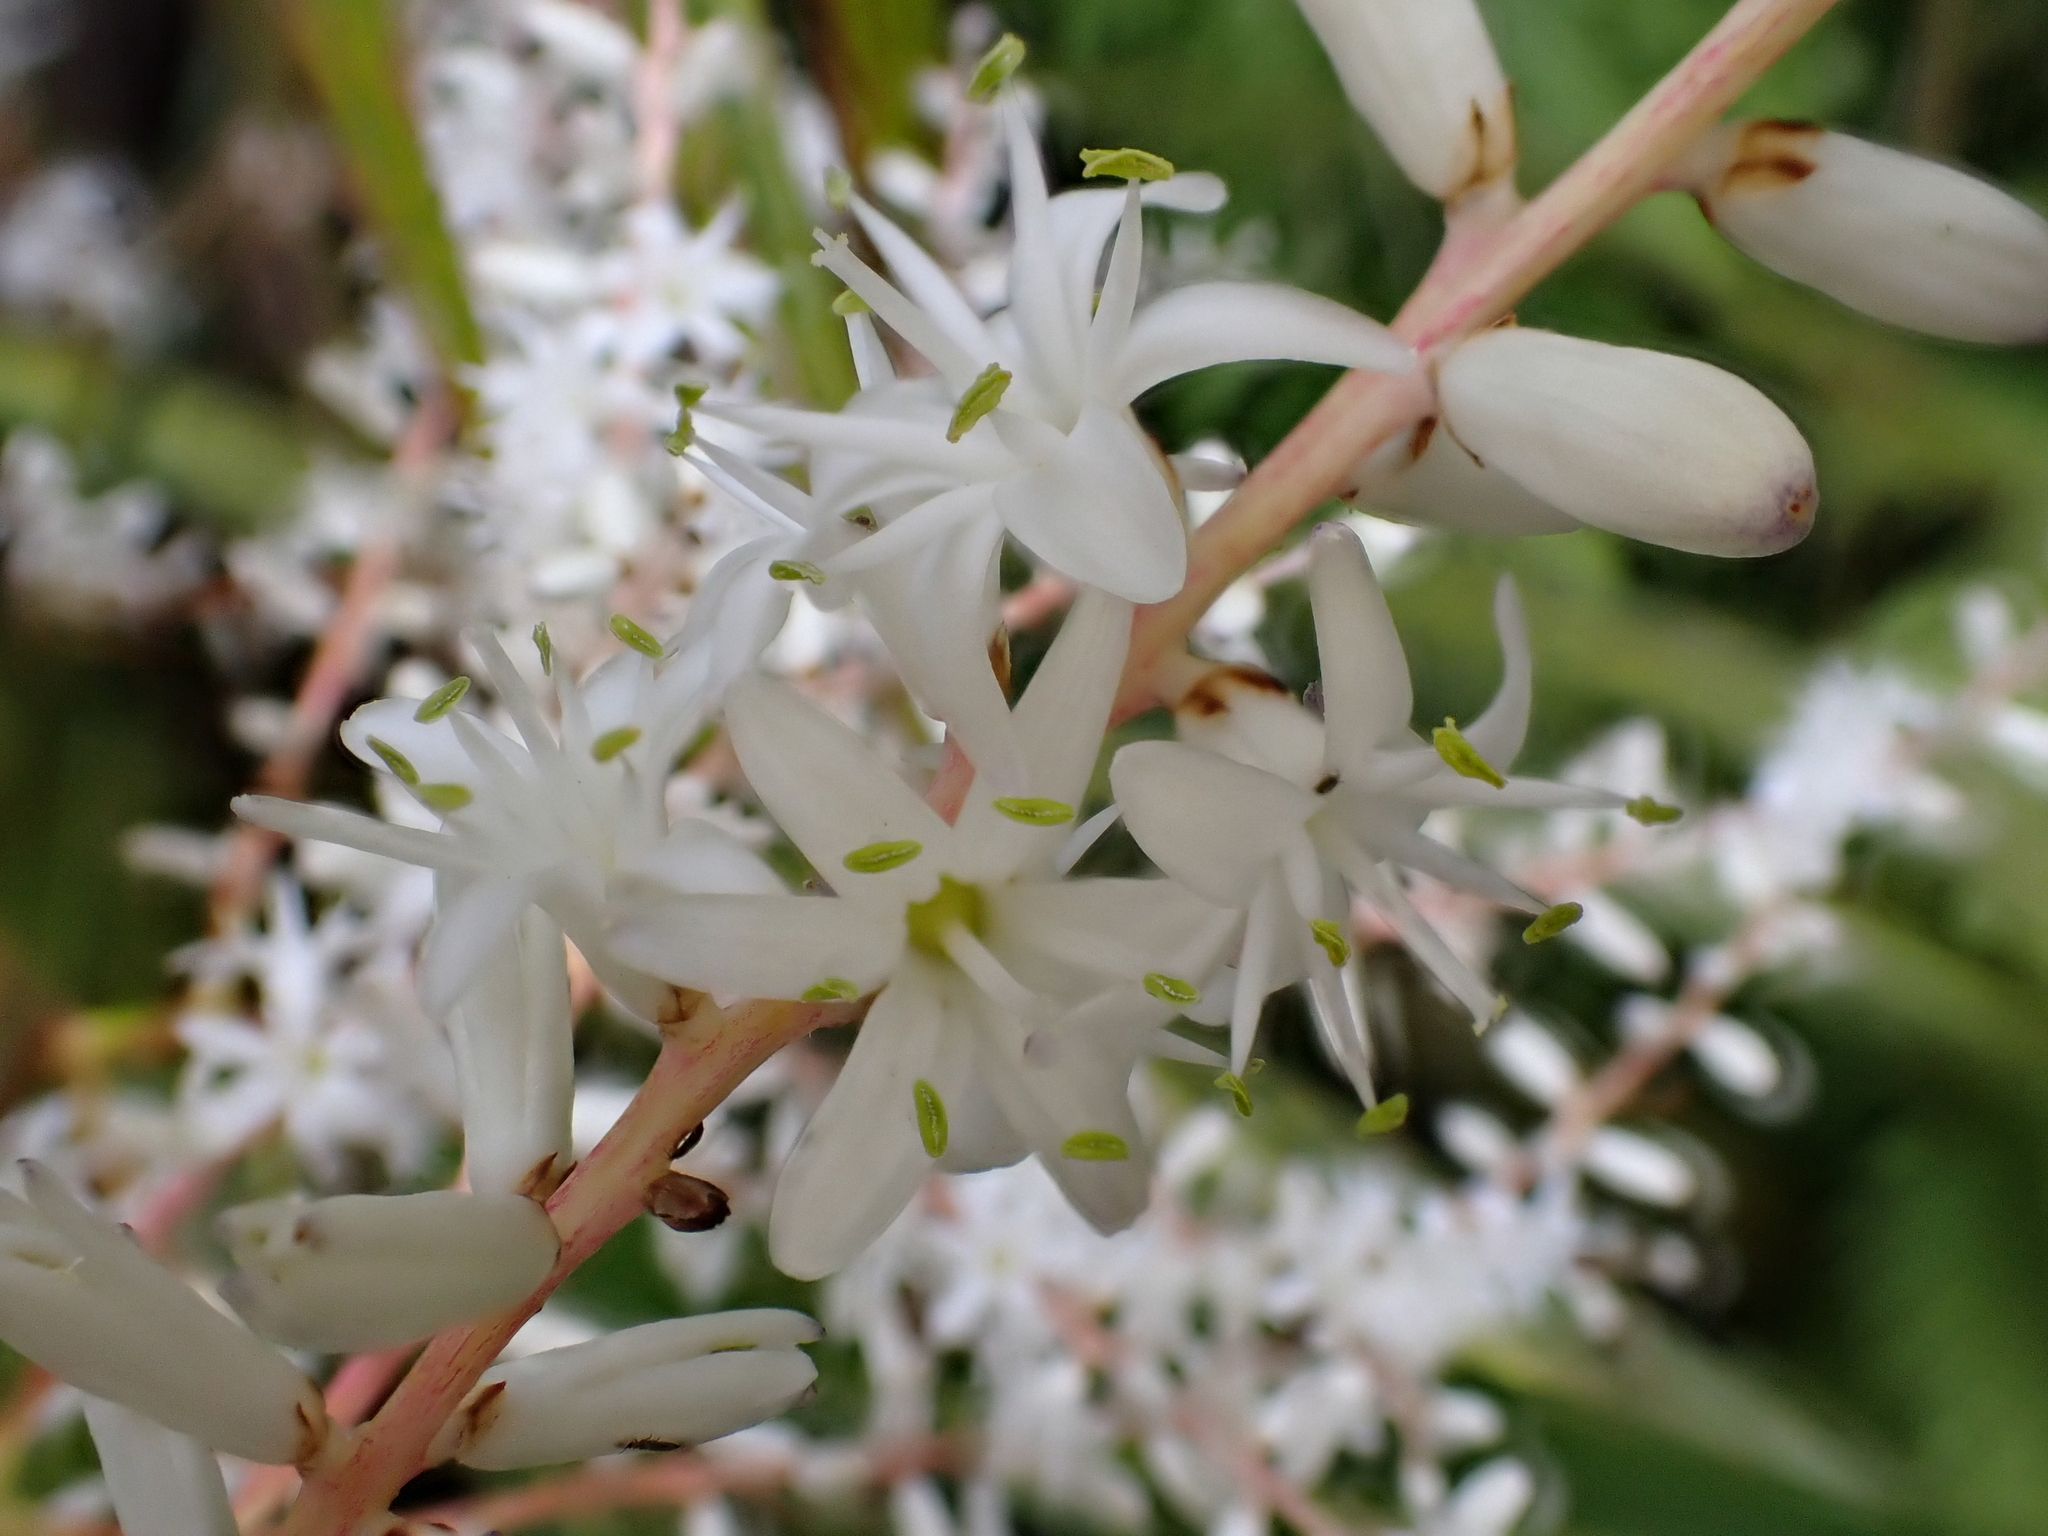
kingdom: Plantae
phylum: Tracheophyta
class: Liliopsida
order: Asparagales
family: Asparagaceae
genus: Cordyline
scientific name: Cordyline banksii
